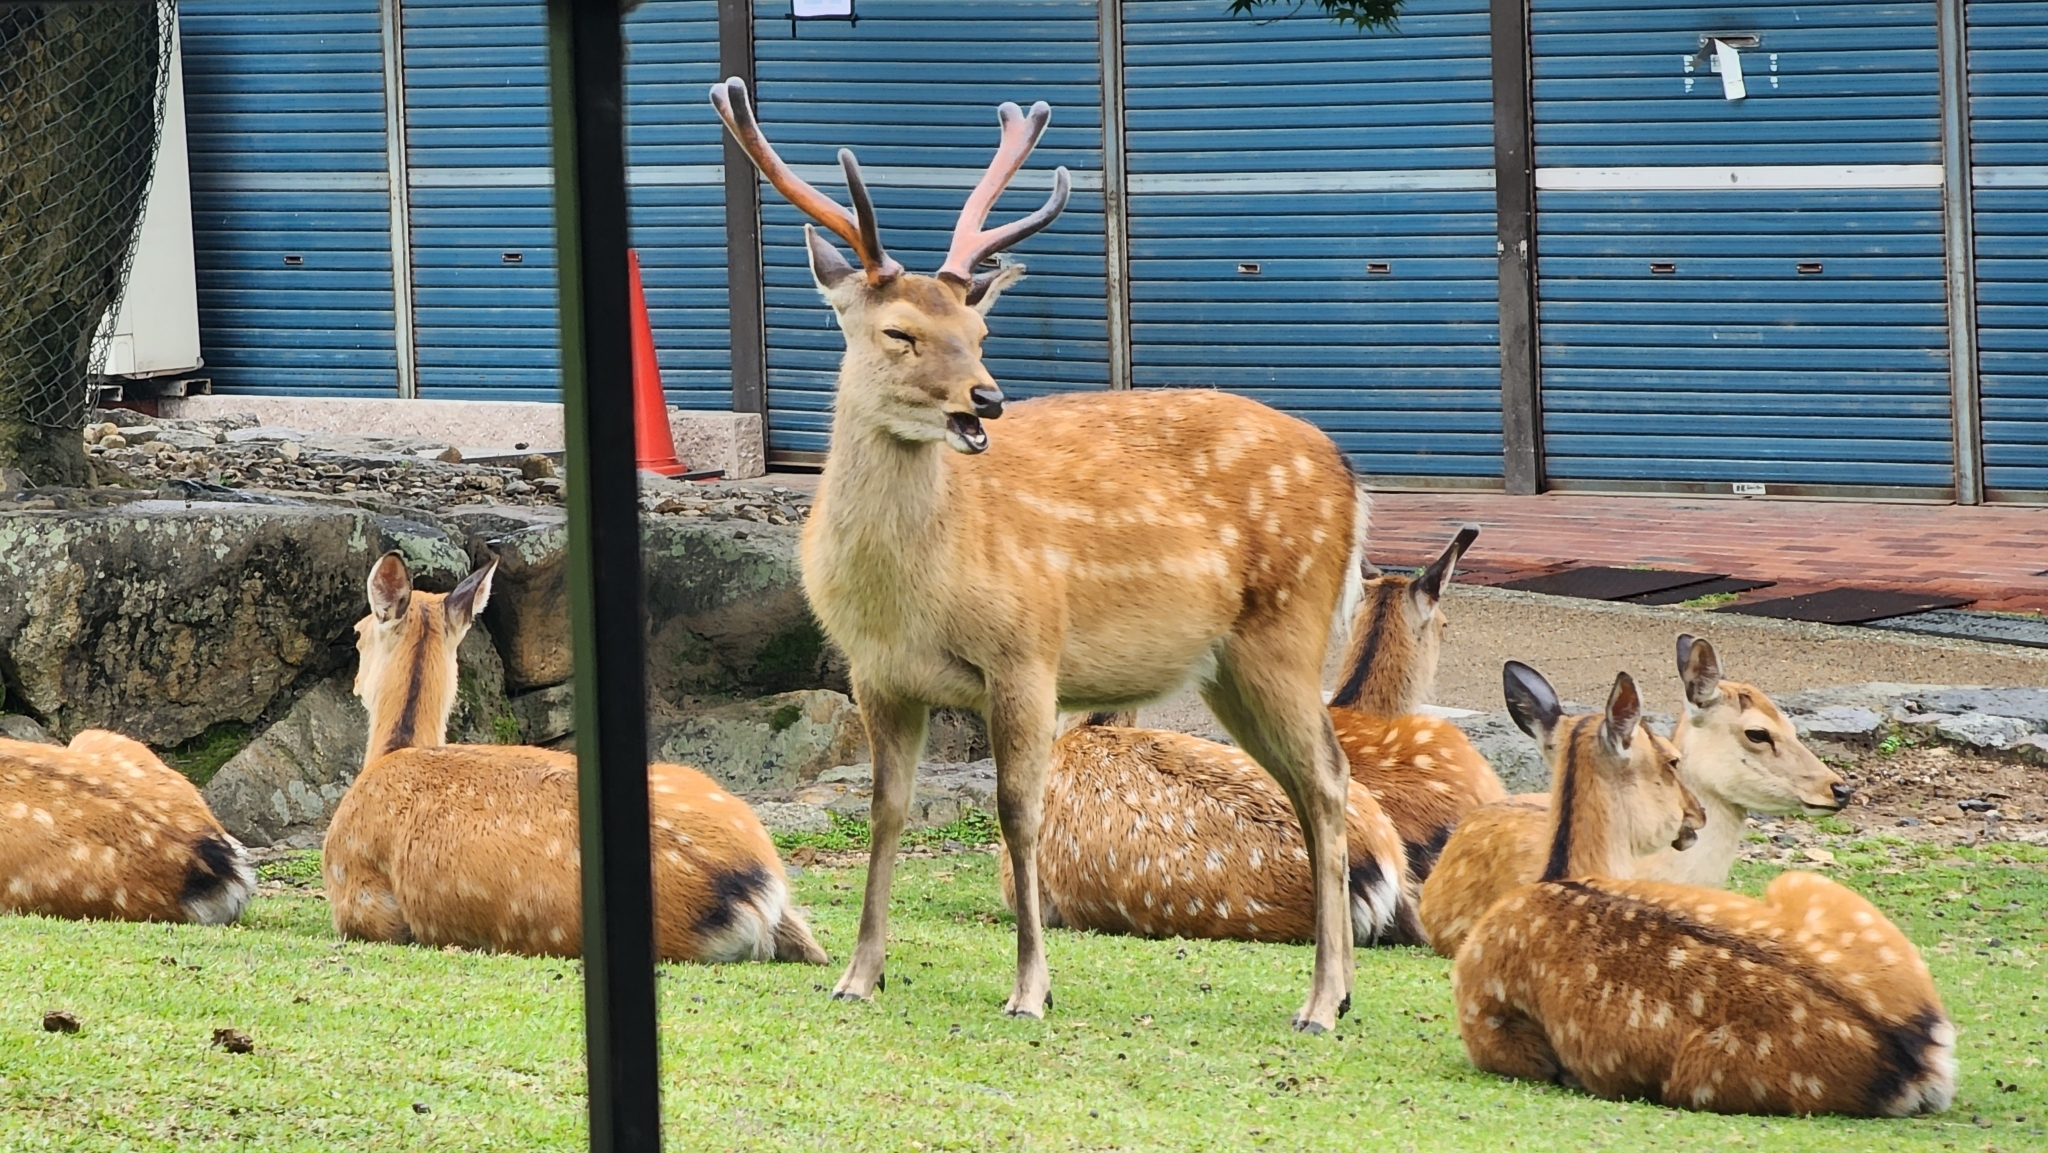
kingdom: Animalia
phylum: Chordata
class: Mammalia
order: Artiodactyla
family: Cervidae
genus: Cervus
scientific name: Cervus nippon
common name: Sika deer
